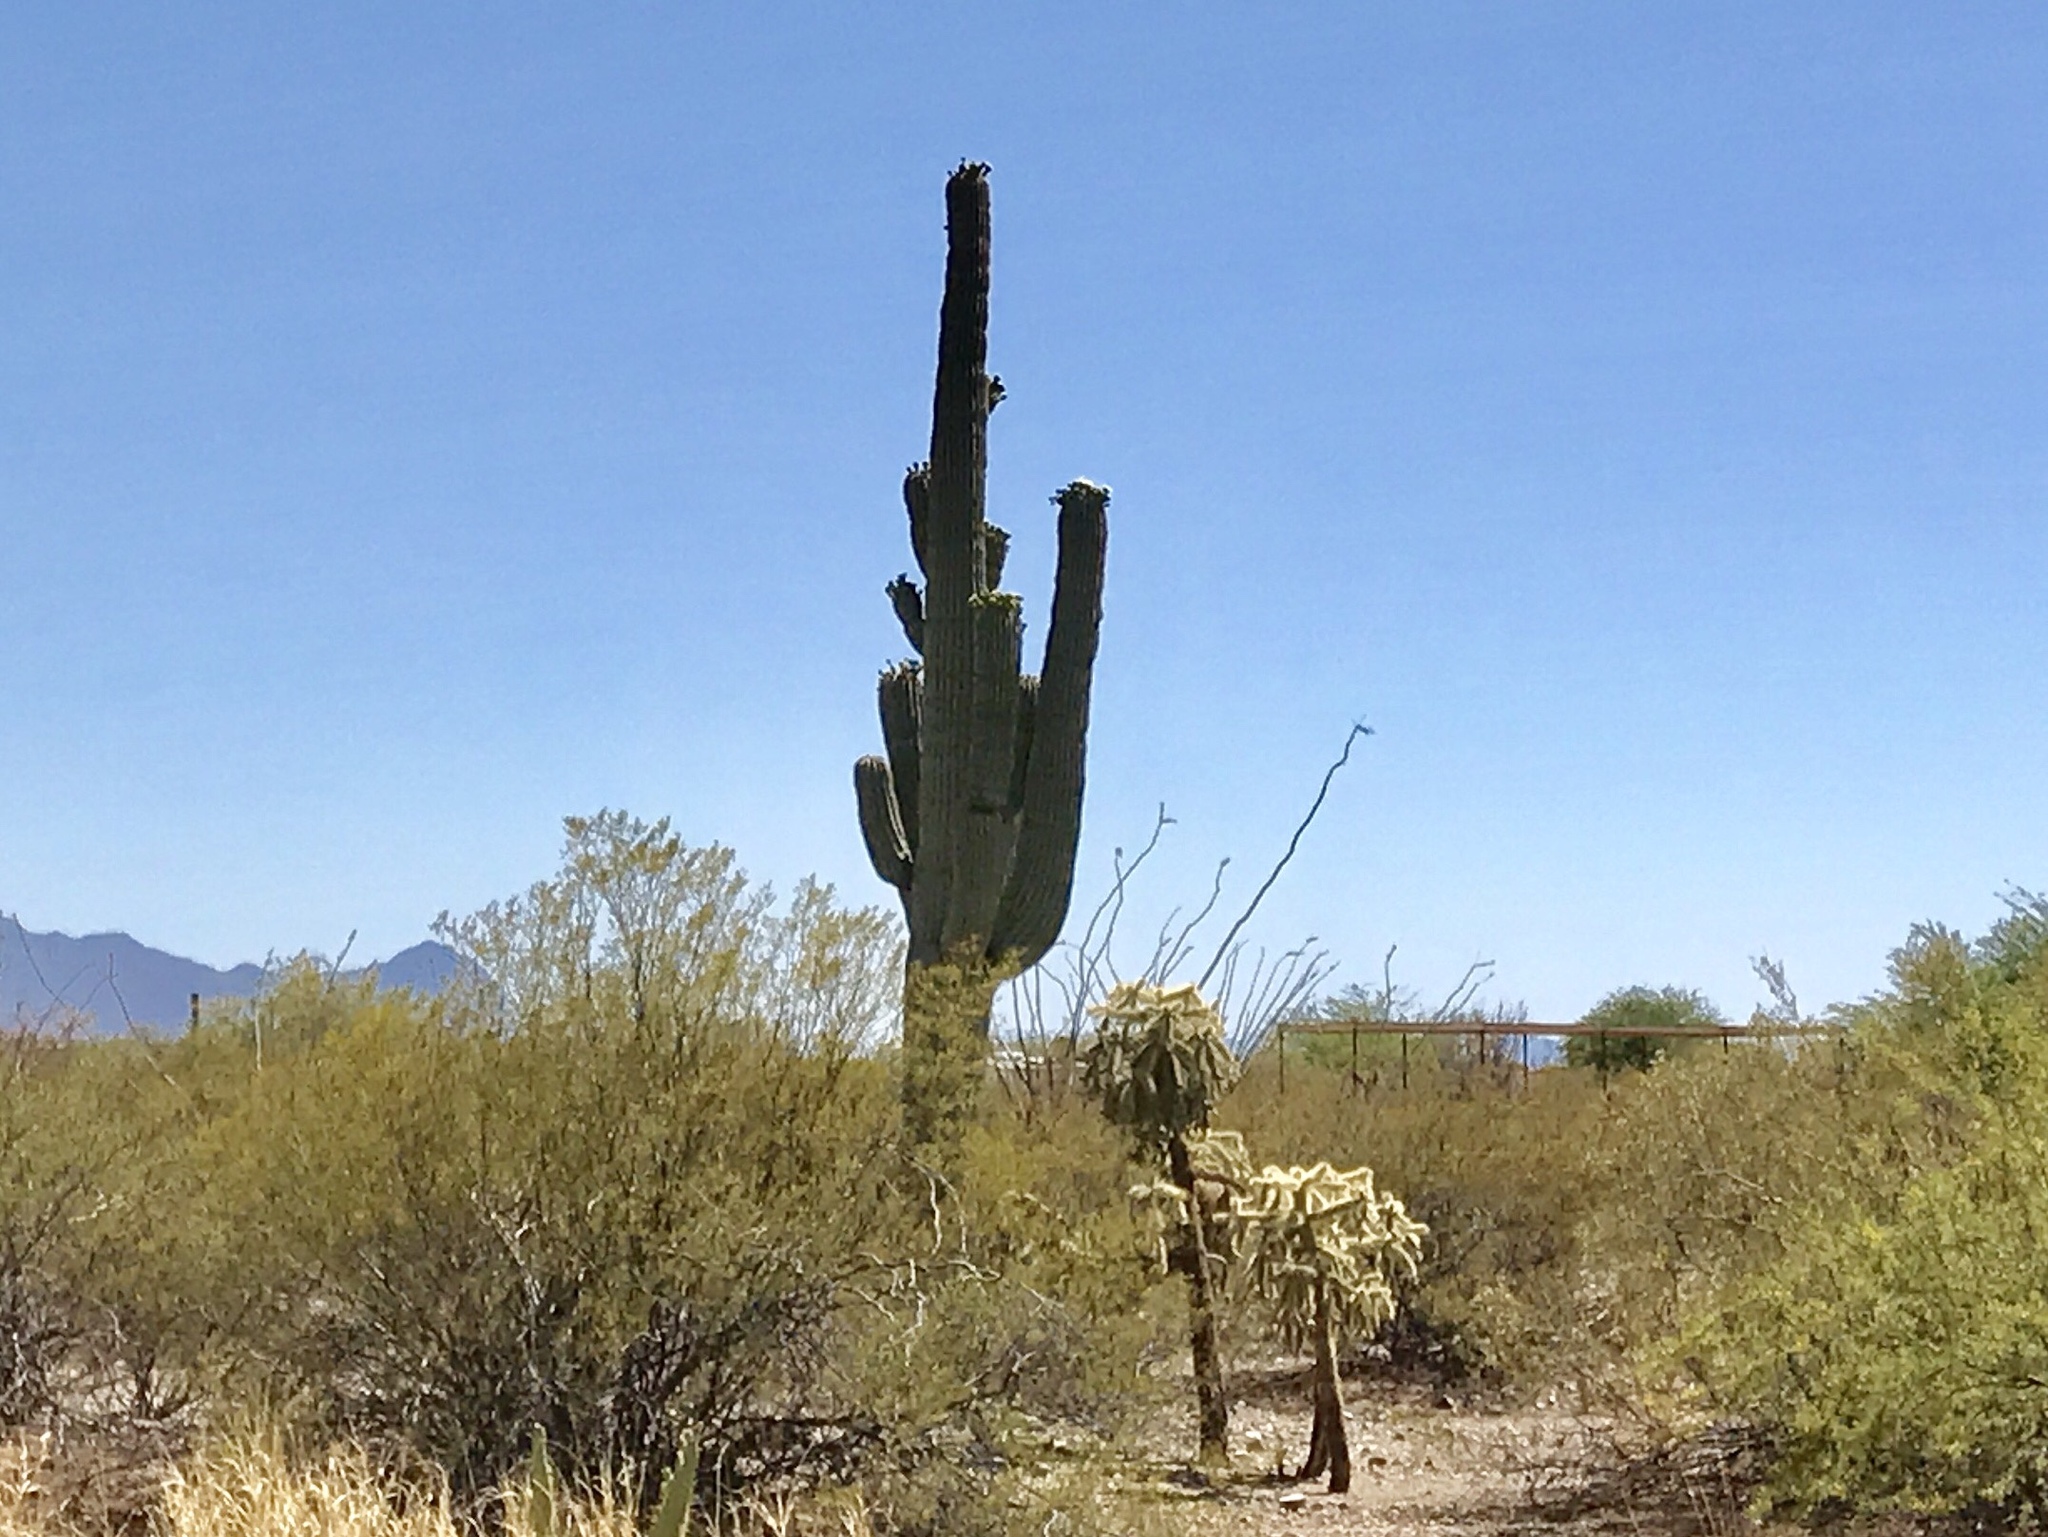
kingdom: Plantae
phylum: Tracheophyta
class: Magnoliopsida
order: Caryophyllales
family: Cactaceae
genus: Carnegiea
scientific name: Carnegiea gigantea
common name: Saguaro
